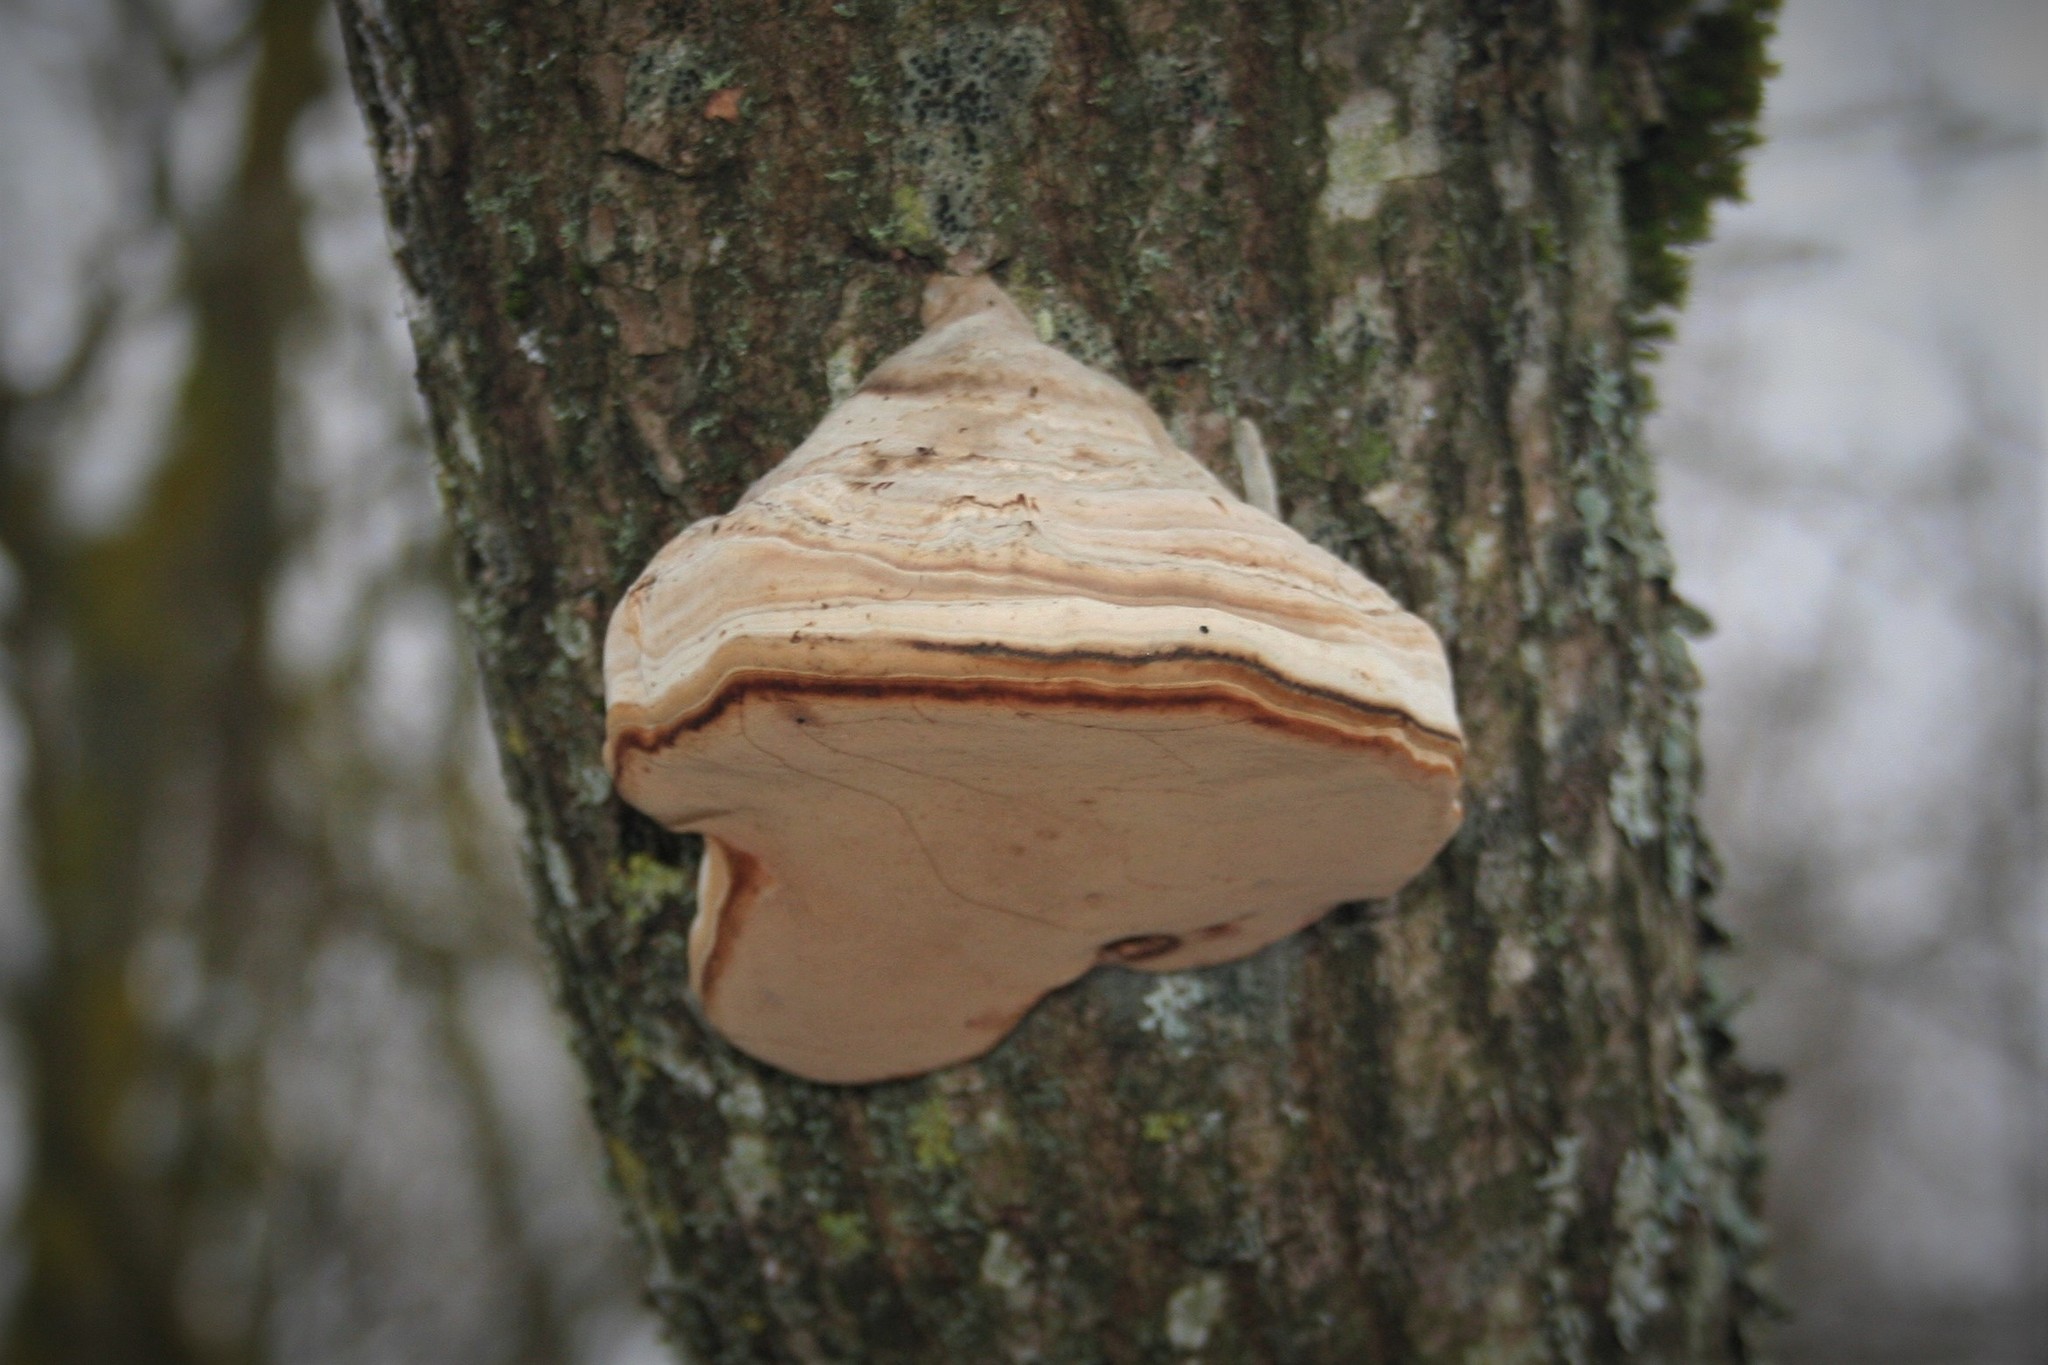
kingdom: Fungi
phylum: Basidiomycota
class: Agaricomycetes
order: Polyporales
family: Polyporaceae
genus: Fomes
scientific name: Fomes fomentarius
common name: Hoof fungus
